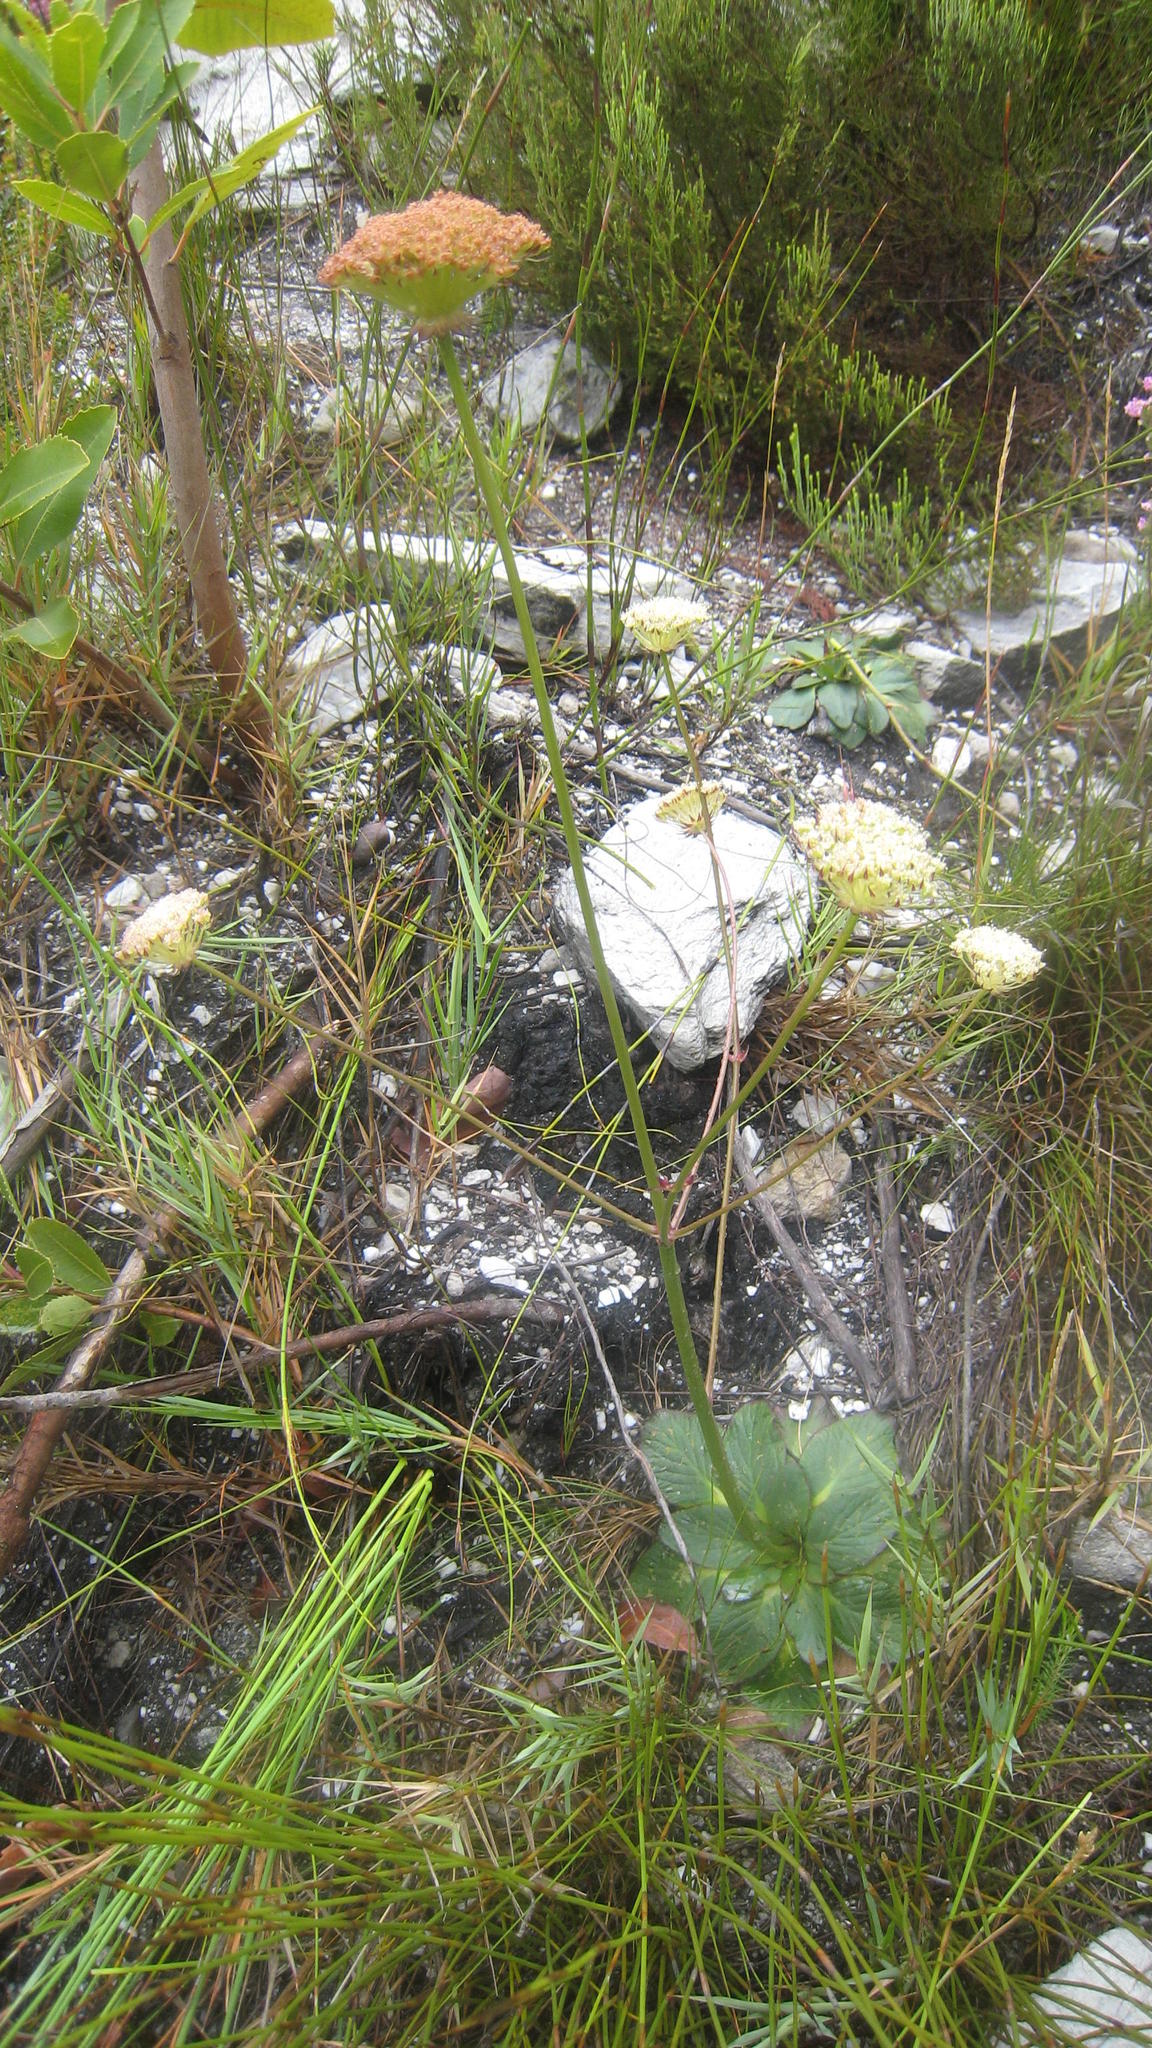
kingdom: Plantae
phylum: Tracheophyta
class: Magnoliopsida
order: Apiales
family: Apiaceae
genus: Hermas
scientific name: Hermas ciliata
